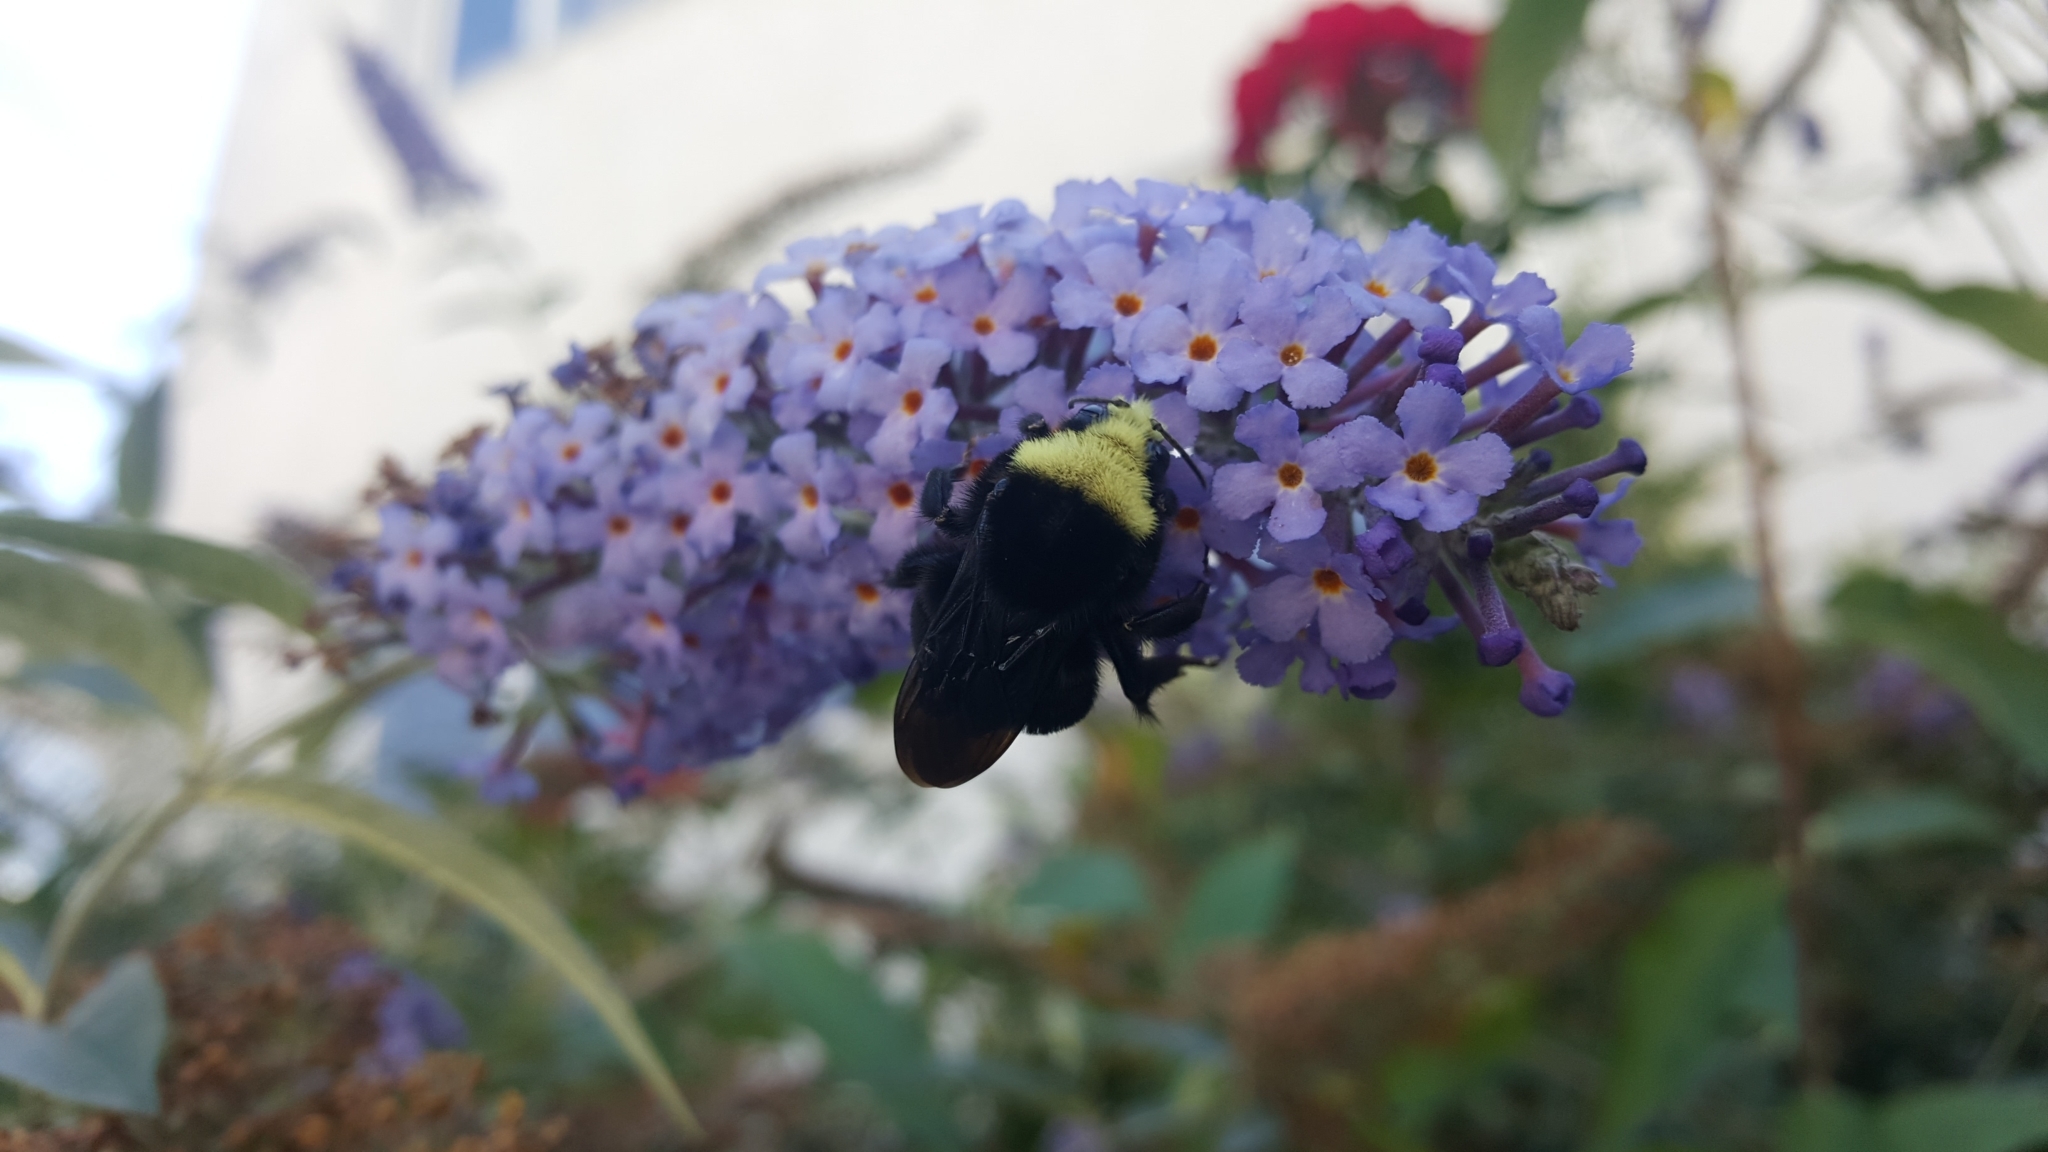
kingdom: Animalia
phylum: Arthropoda
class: Insecta
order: Hymenoptera
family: Apidae
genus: Bombus
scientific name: Bombus vosnesenskii
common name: Vosnesensky bumble bee
